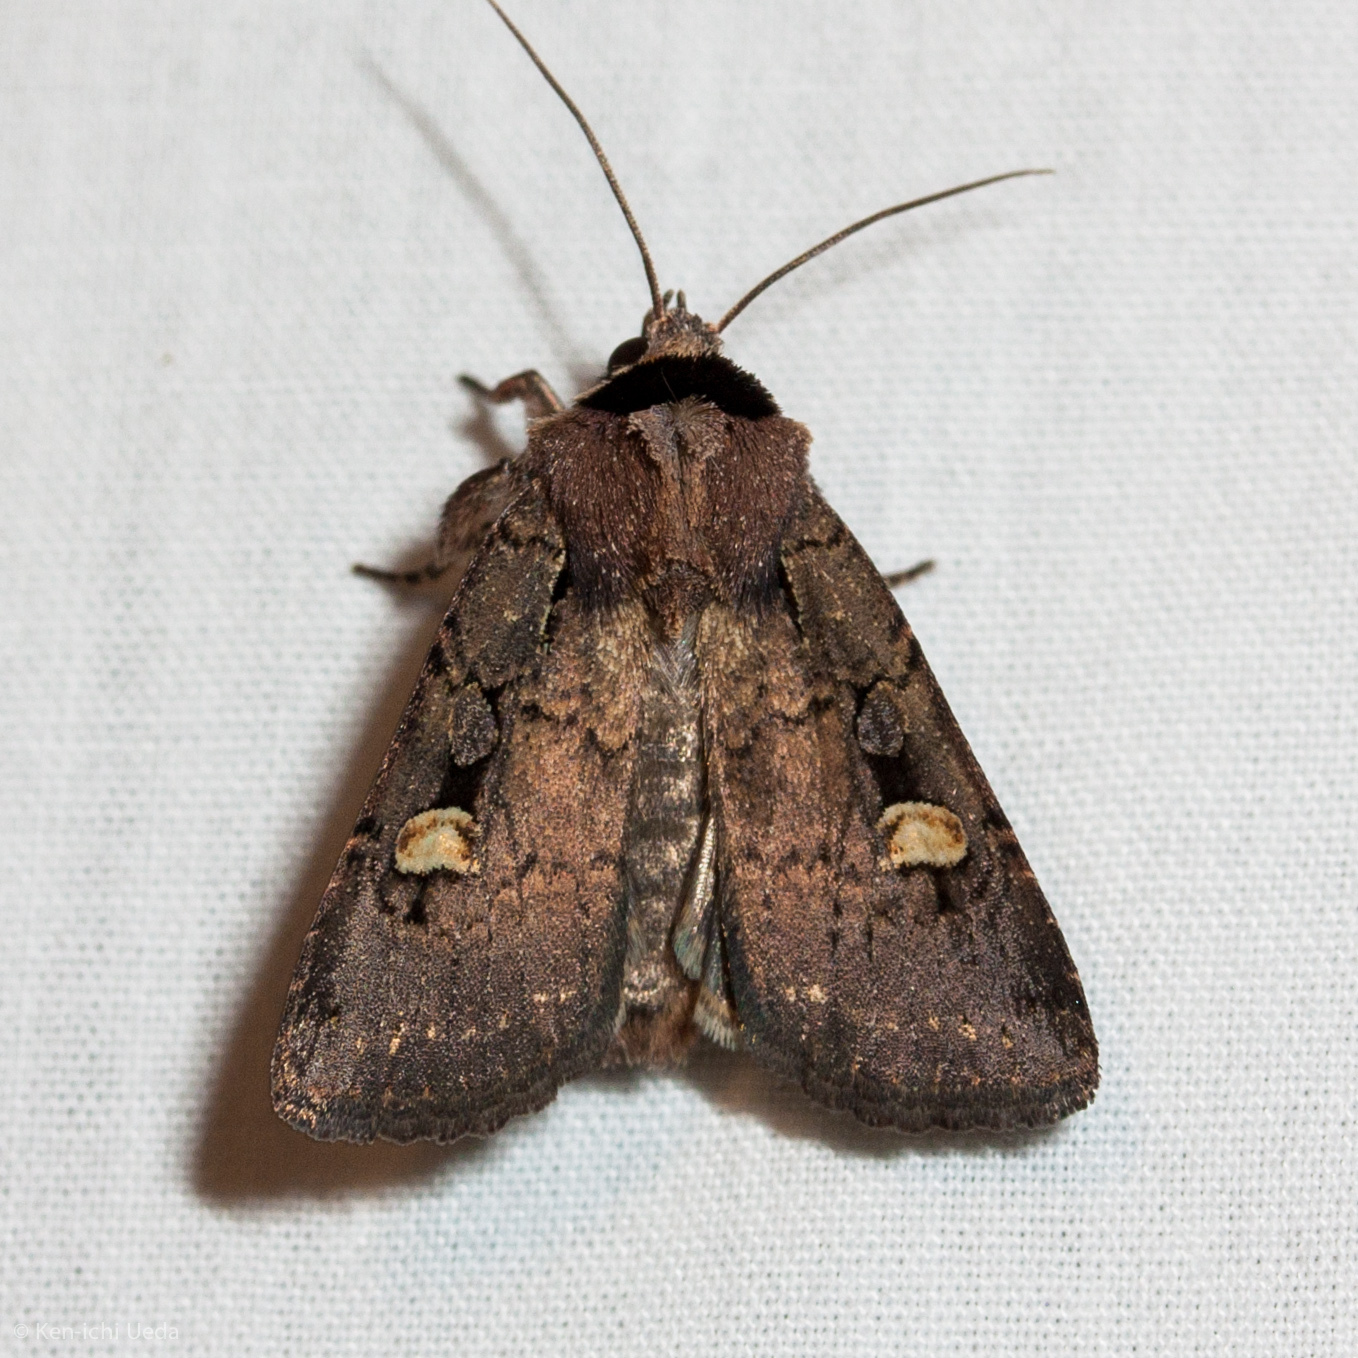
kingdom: Animalia
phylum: Arthropoda
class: Insecta
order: Lepidoptera
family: Noctuidae
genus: Adelphagrotis
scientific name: Adelphagrotis indeterminata
